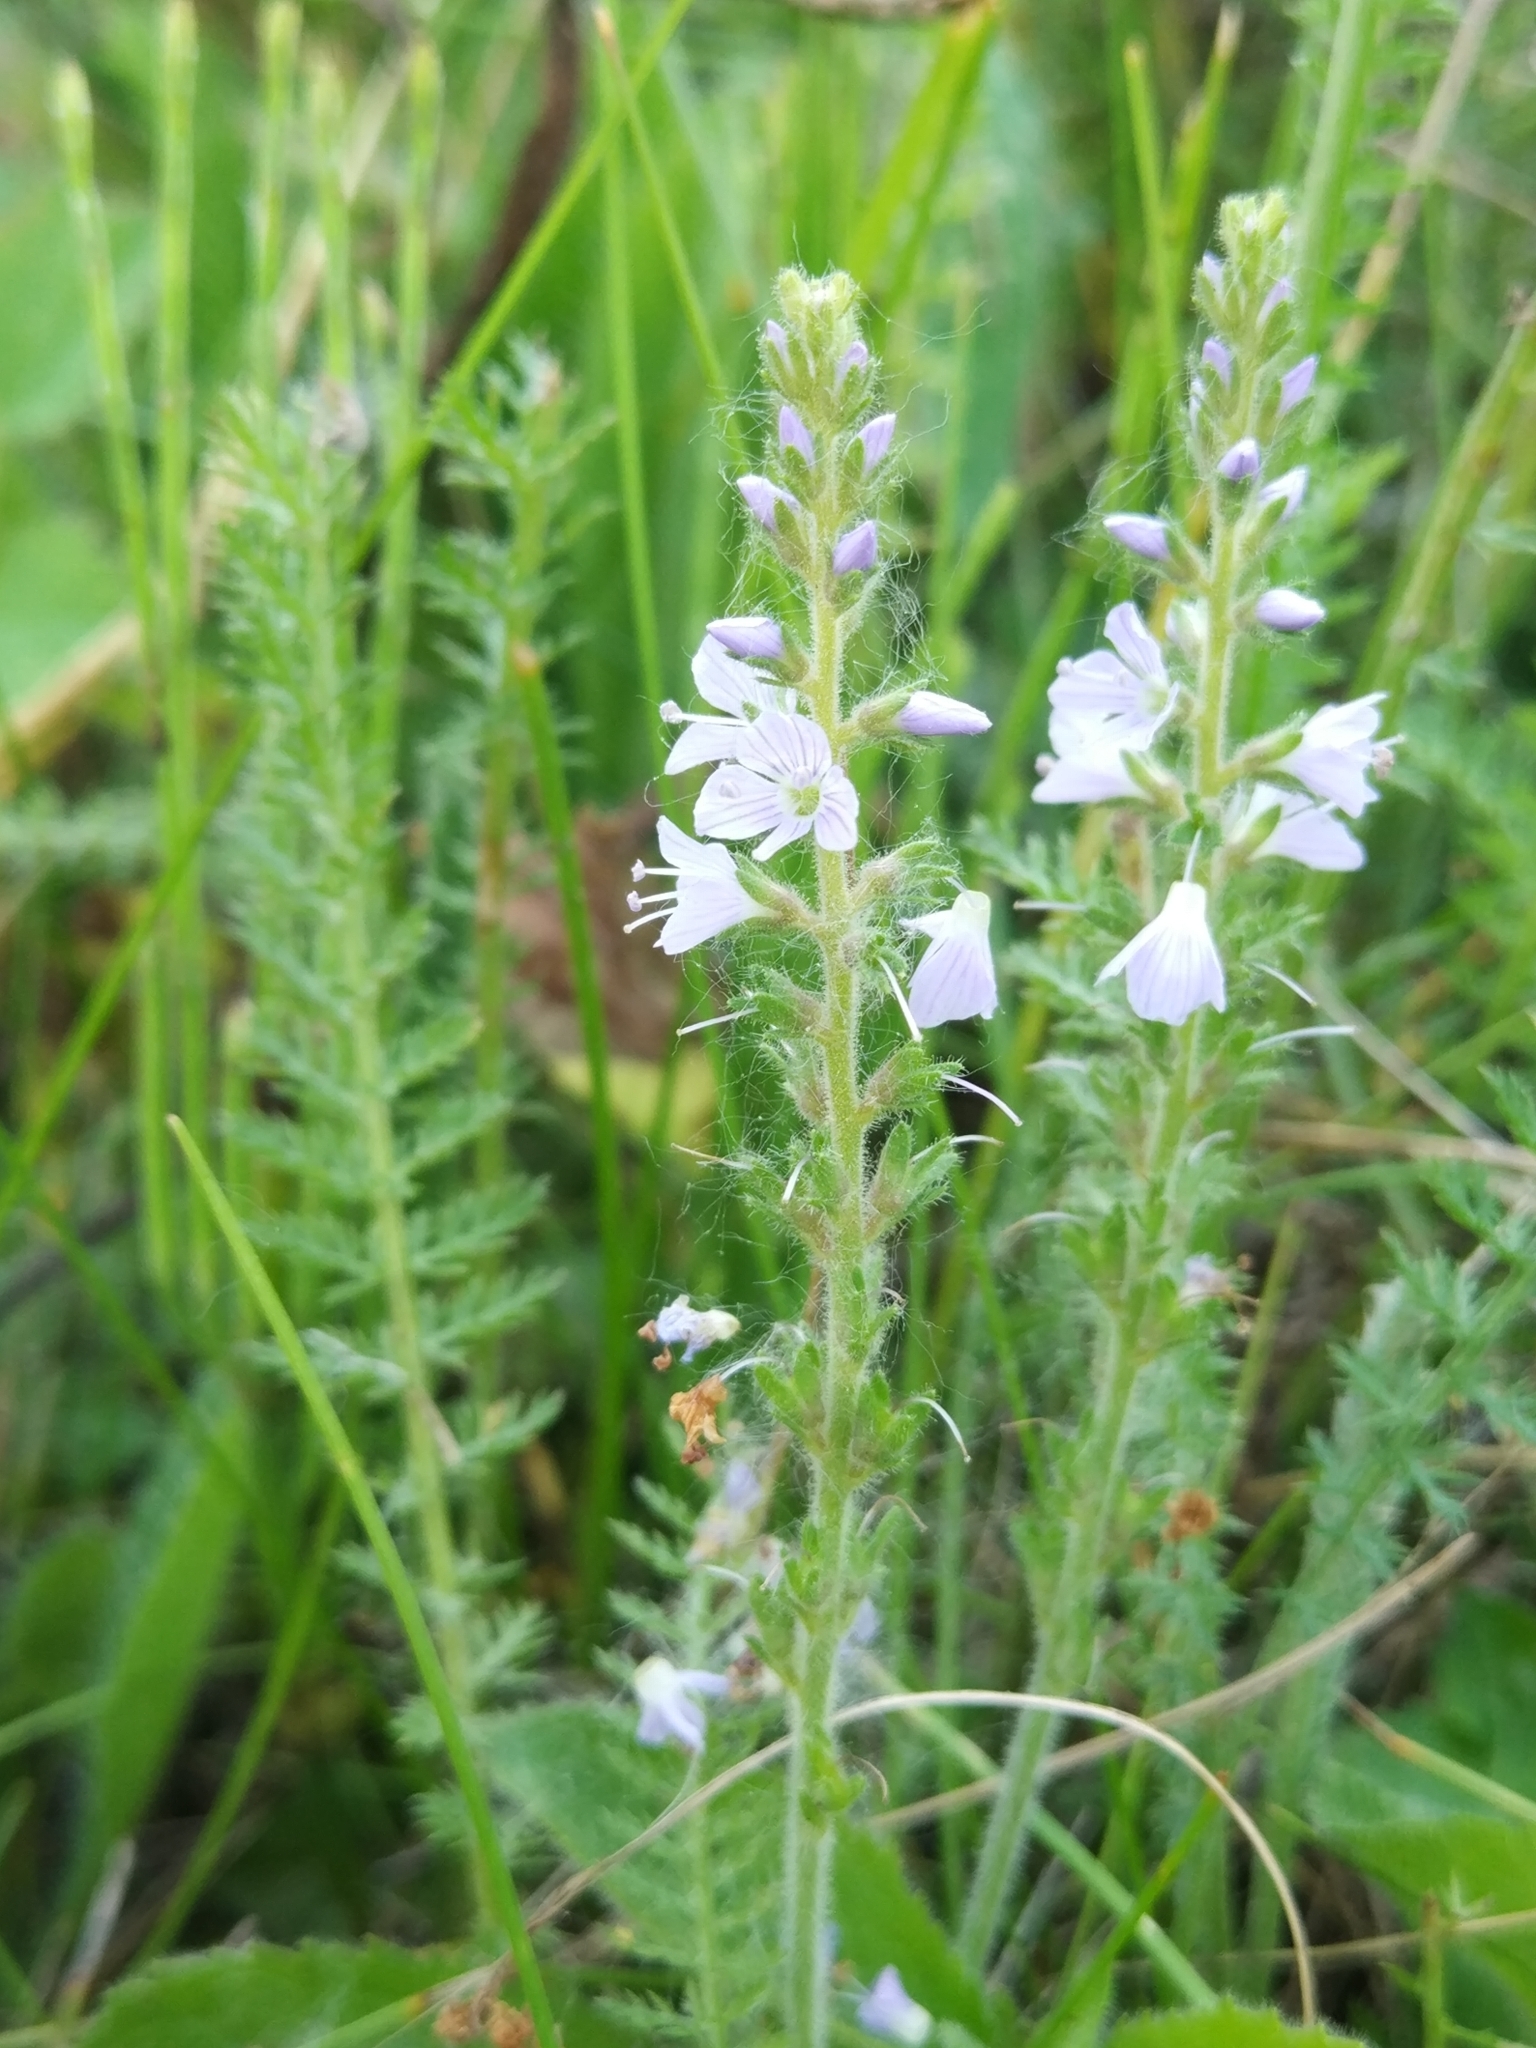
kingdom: Plantae
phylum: Tracheophyta
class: Magnoliopsida
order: Lamiales
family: Plantaginaceae
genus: Veronica
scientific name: Veronica officinalis
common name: Common speedwell
